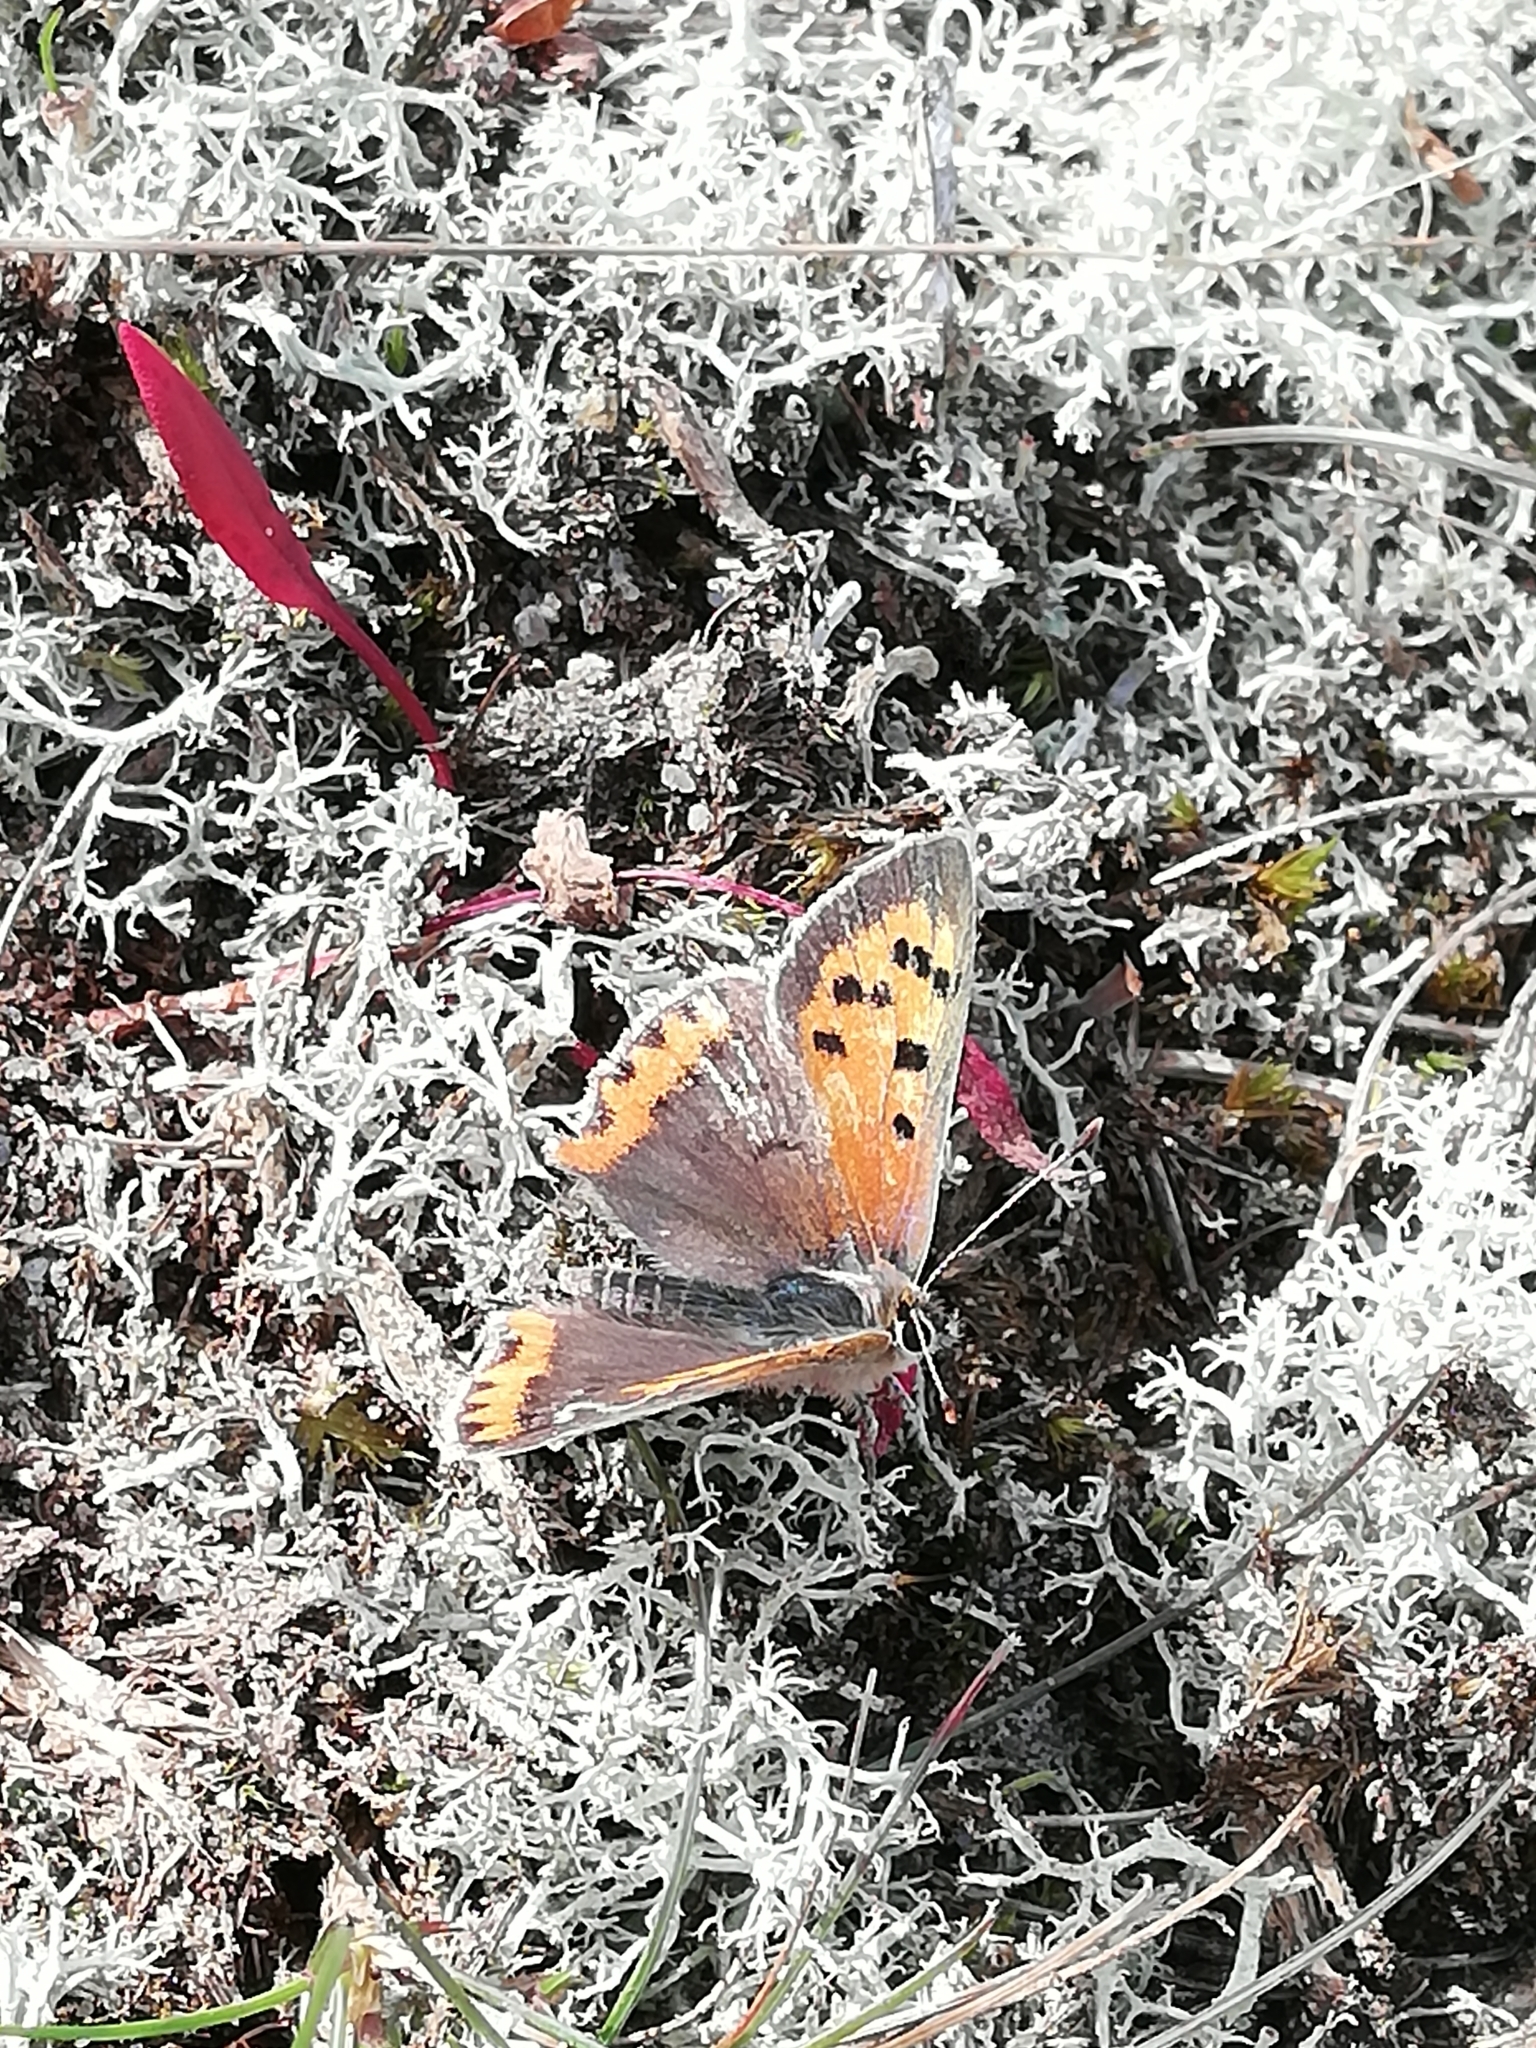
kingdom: Animalia
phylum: Arthropoda
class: Insecta
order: Lepidoptera
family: Lycaenidae
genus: Lycaena
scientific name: Lycaena phlaeas
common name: Small copper
